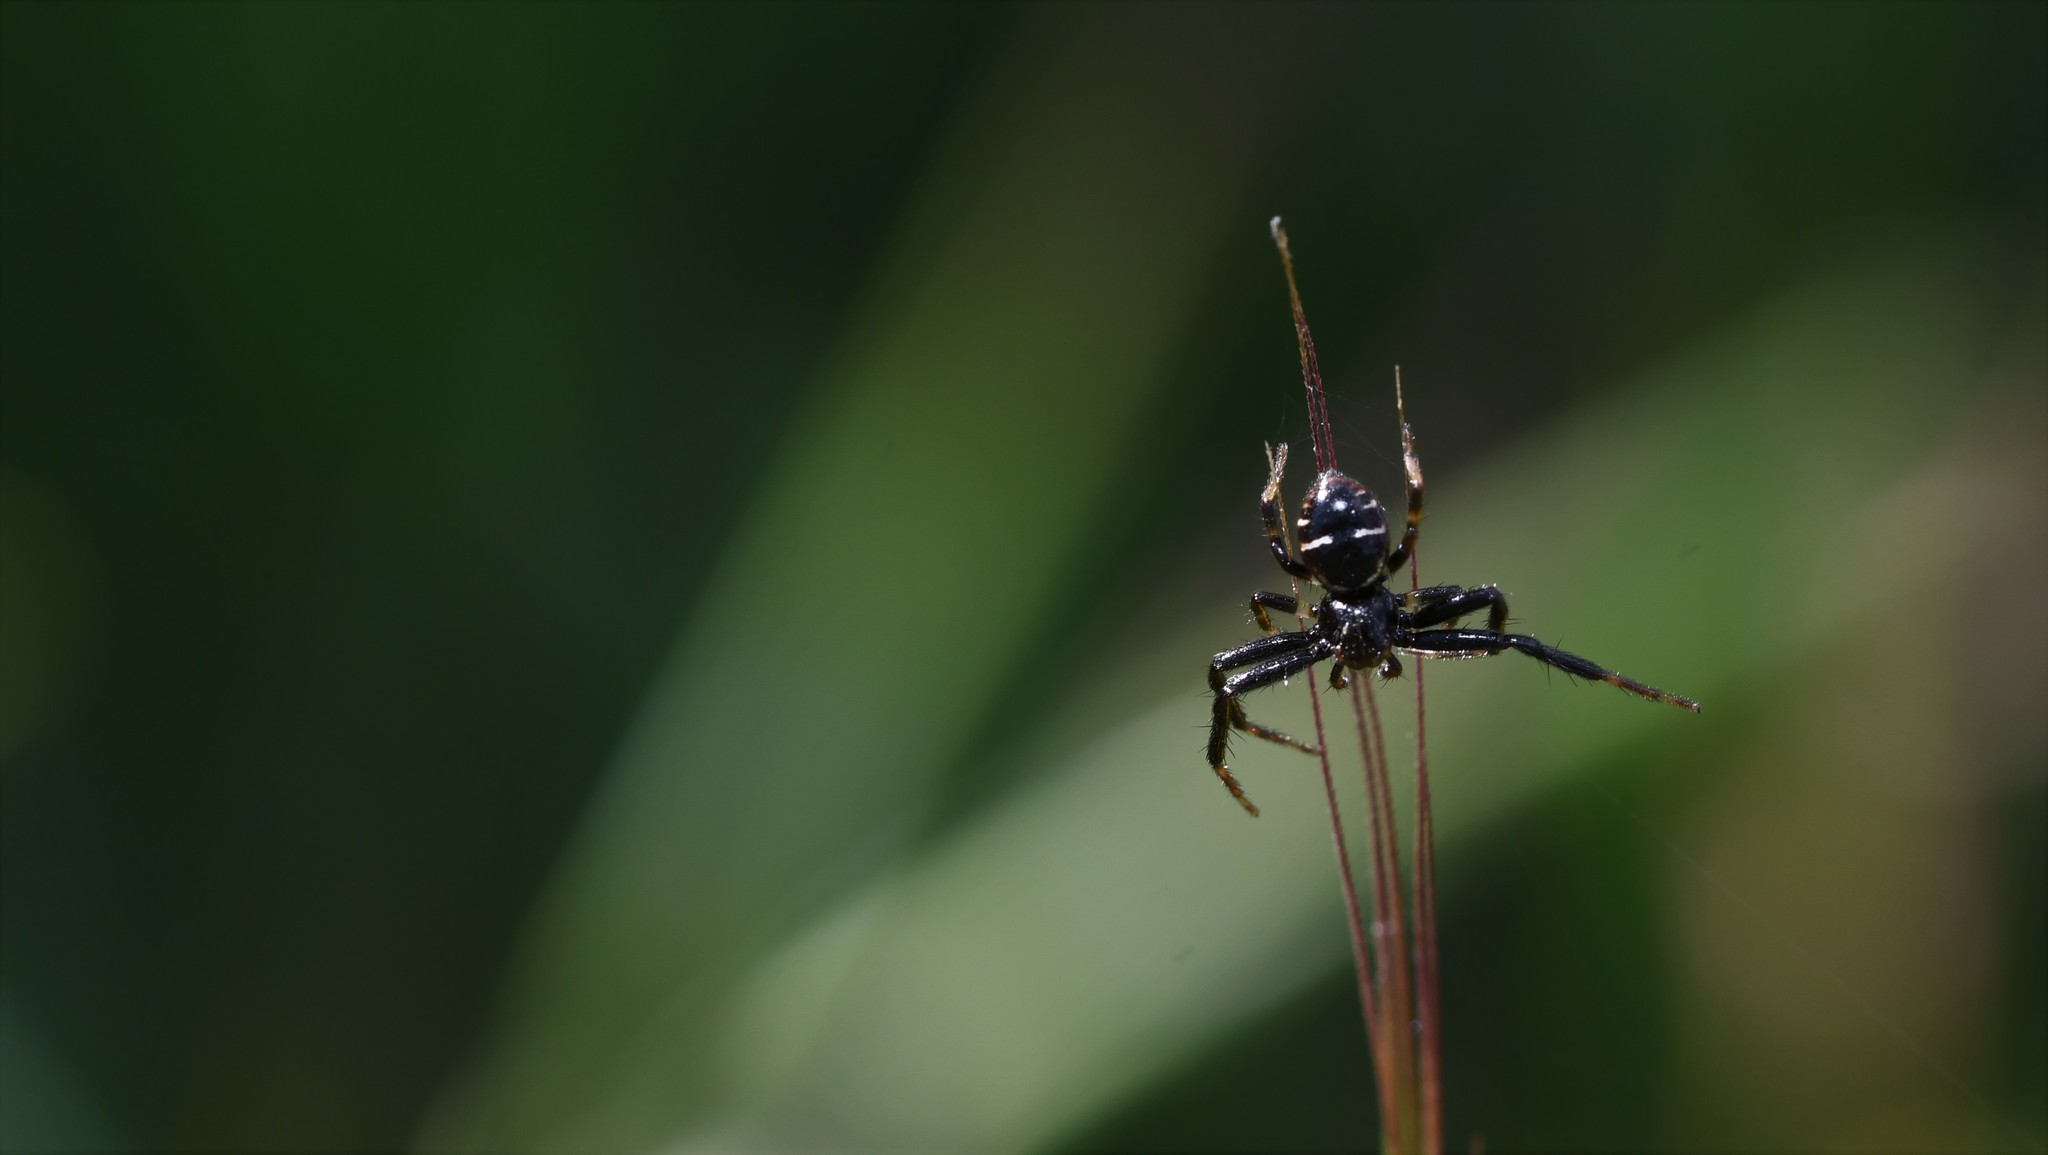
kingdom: Animalia
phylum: Arthropoda
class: Arachnida
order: Araneae
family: Thomisidae
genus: Synema
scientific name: Synema globosum
